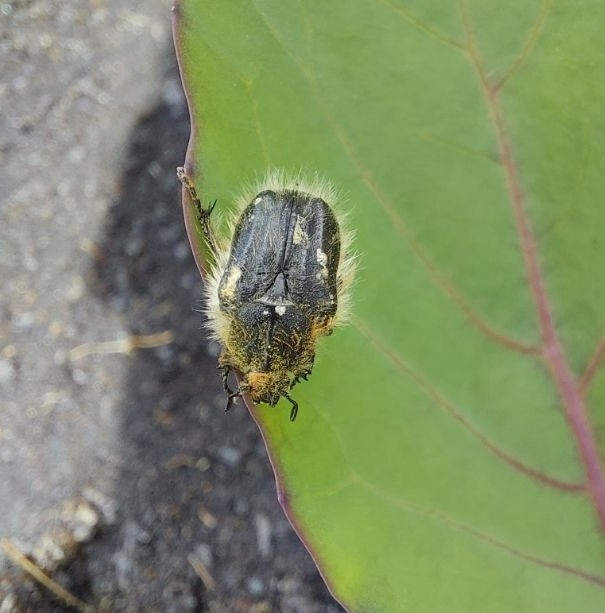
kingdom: Animalia
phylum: Arthropoda
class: Insecta
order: Coleoptera
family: Scarabaeidae
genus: Tropinota
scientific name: Tropinota squalida
